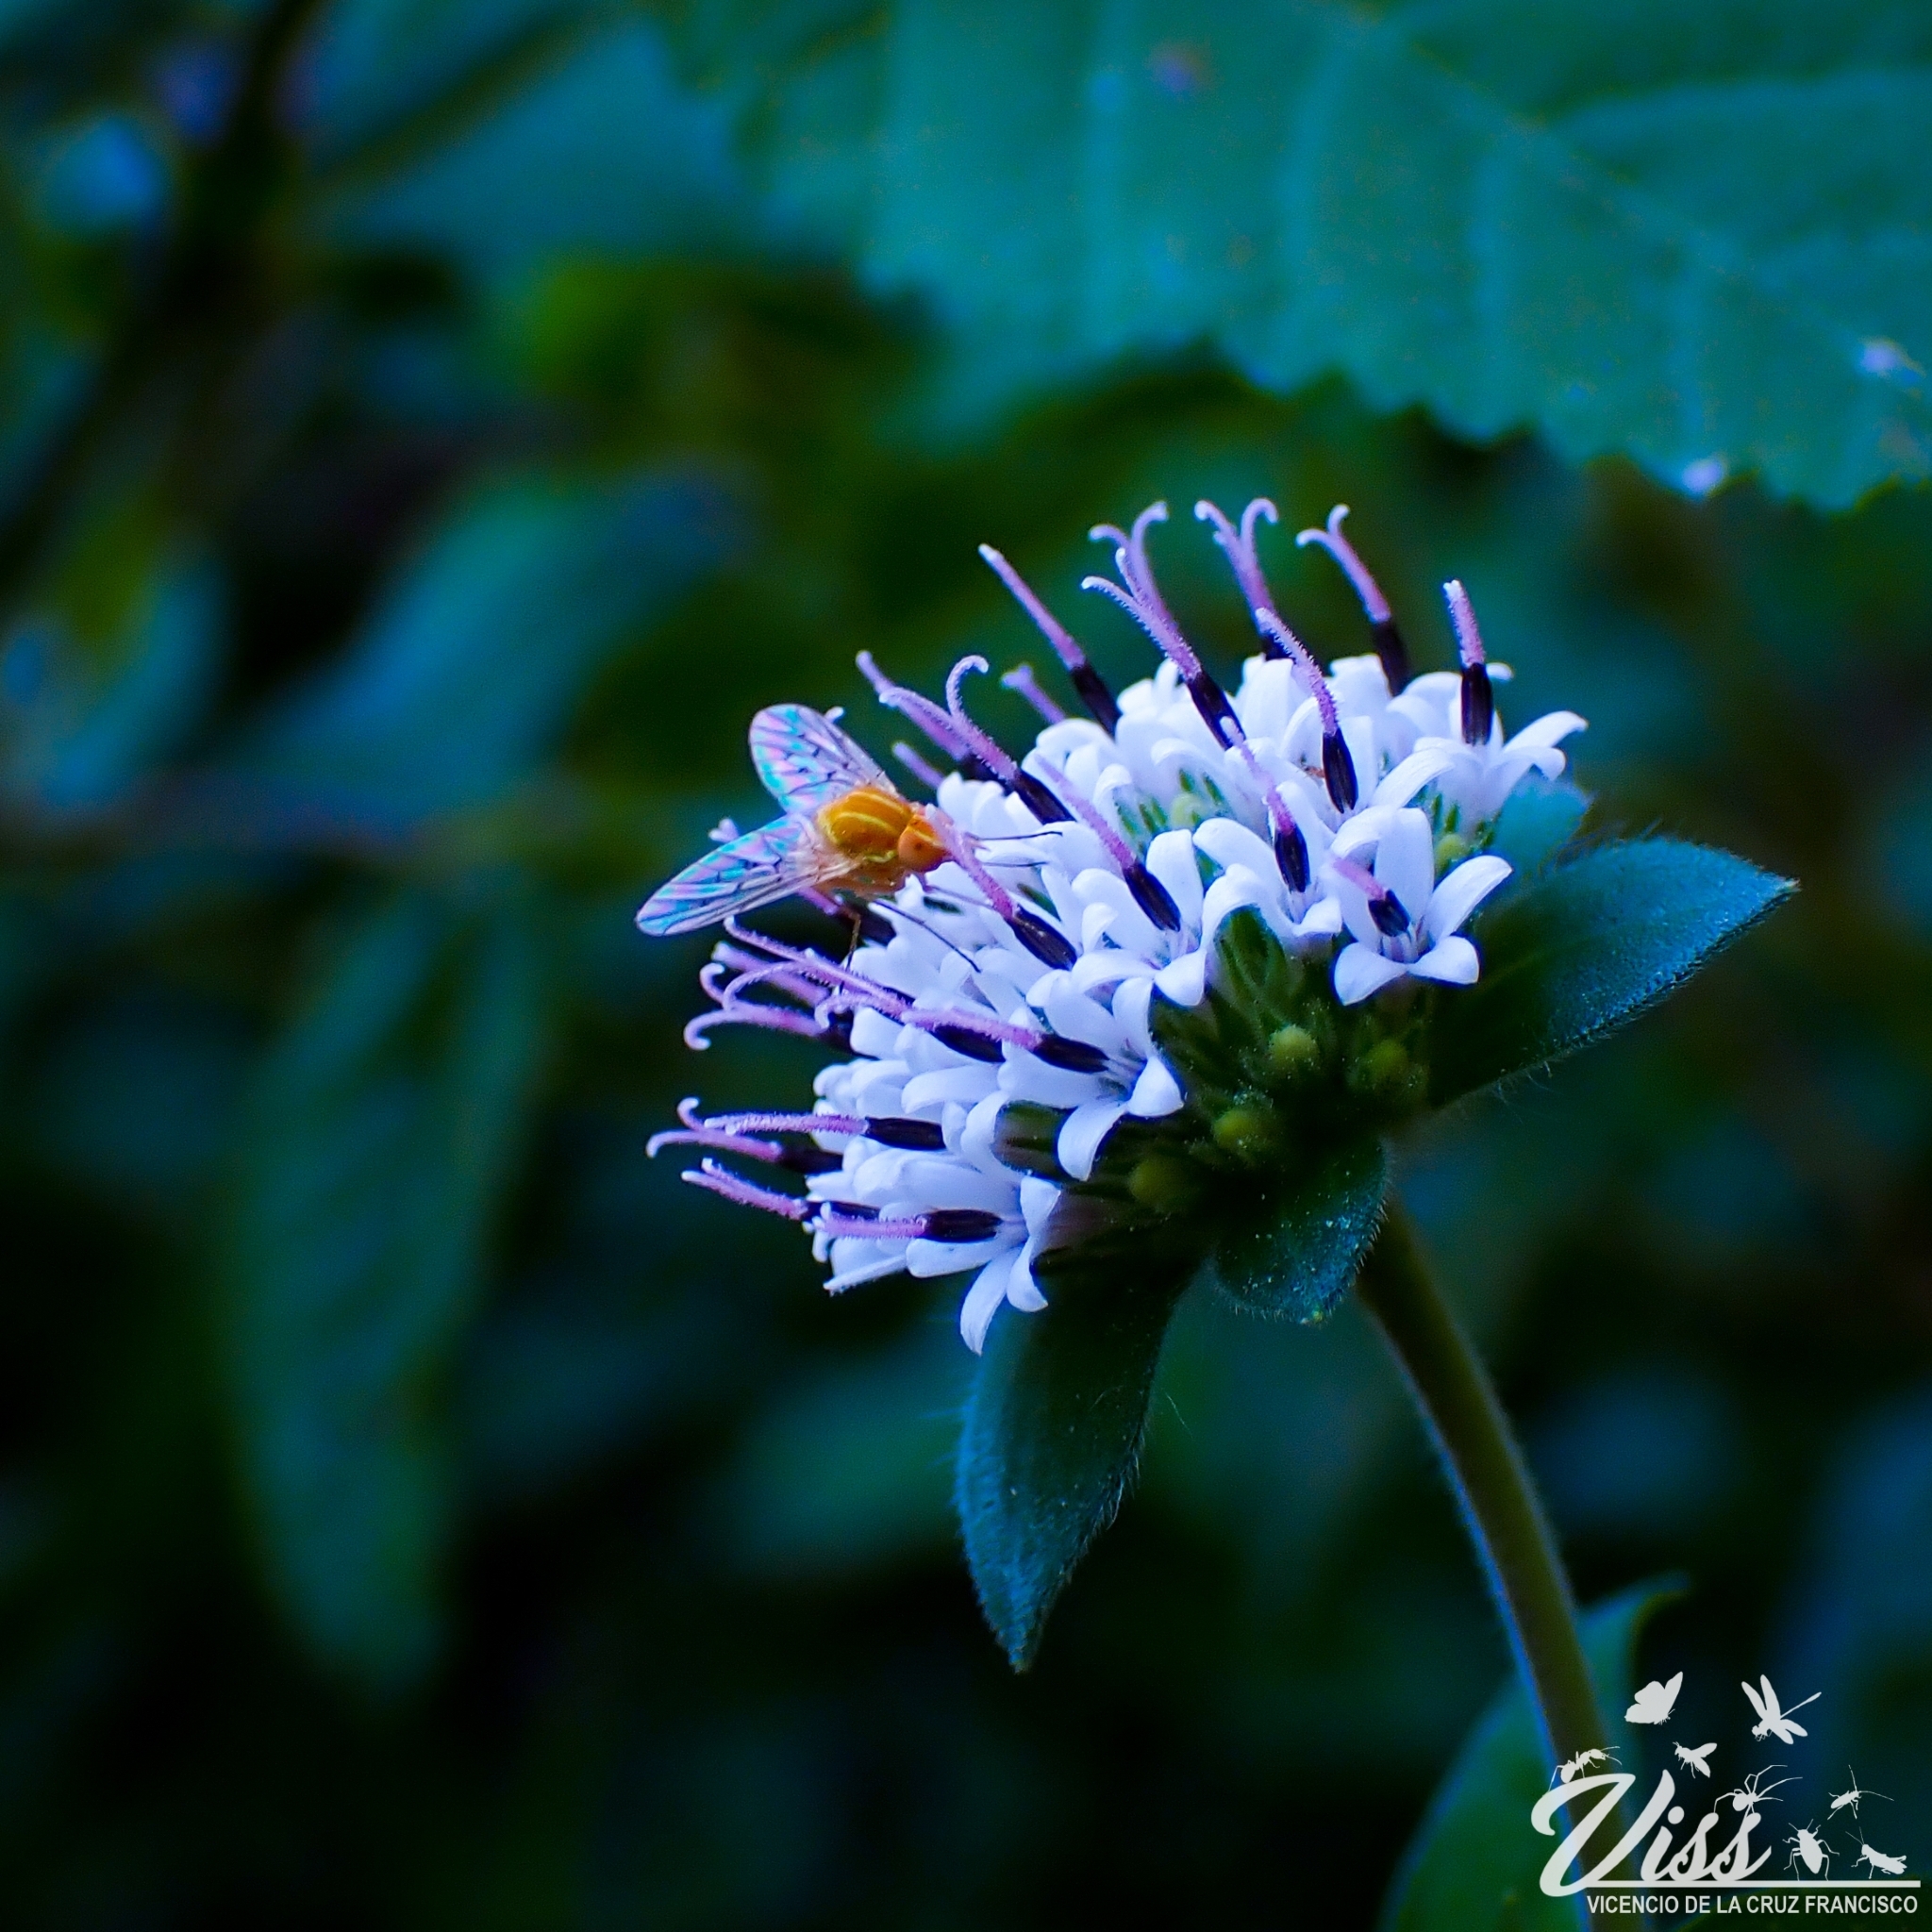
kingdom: Plantae
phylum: Tracheophyta
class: Magnoliopsida
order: Asterales
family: Asteraceae
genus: Lagascea
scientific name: Lagascea mollis
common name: Silkleaf
